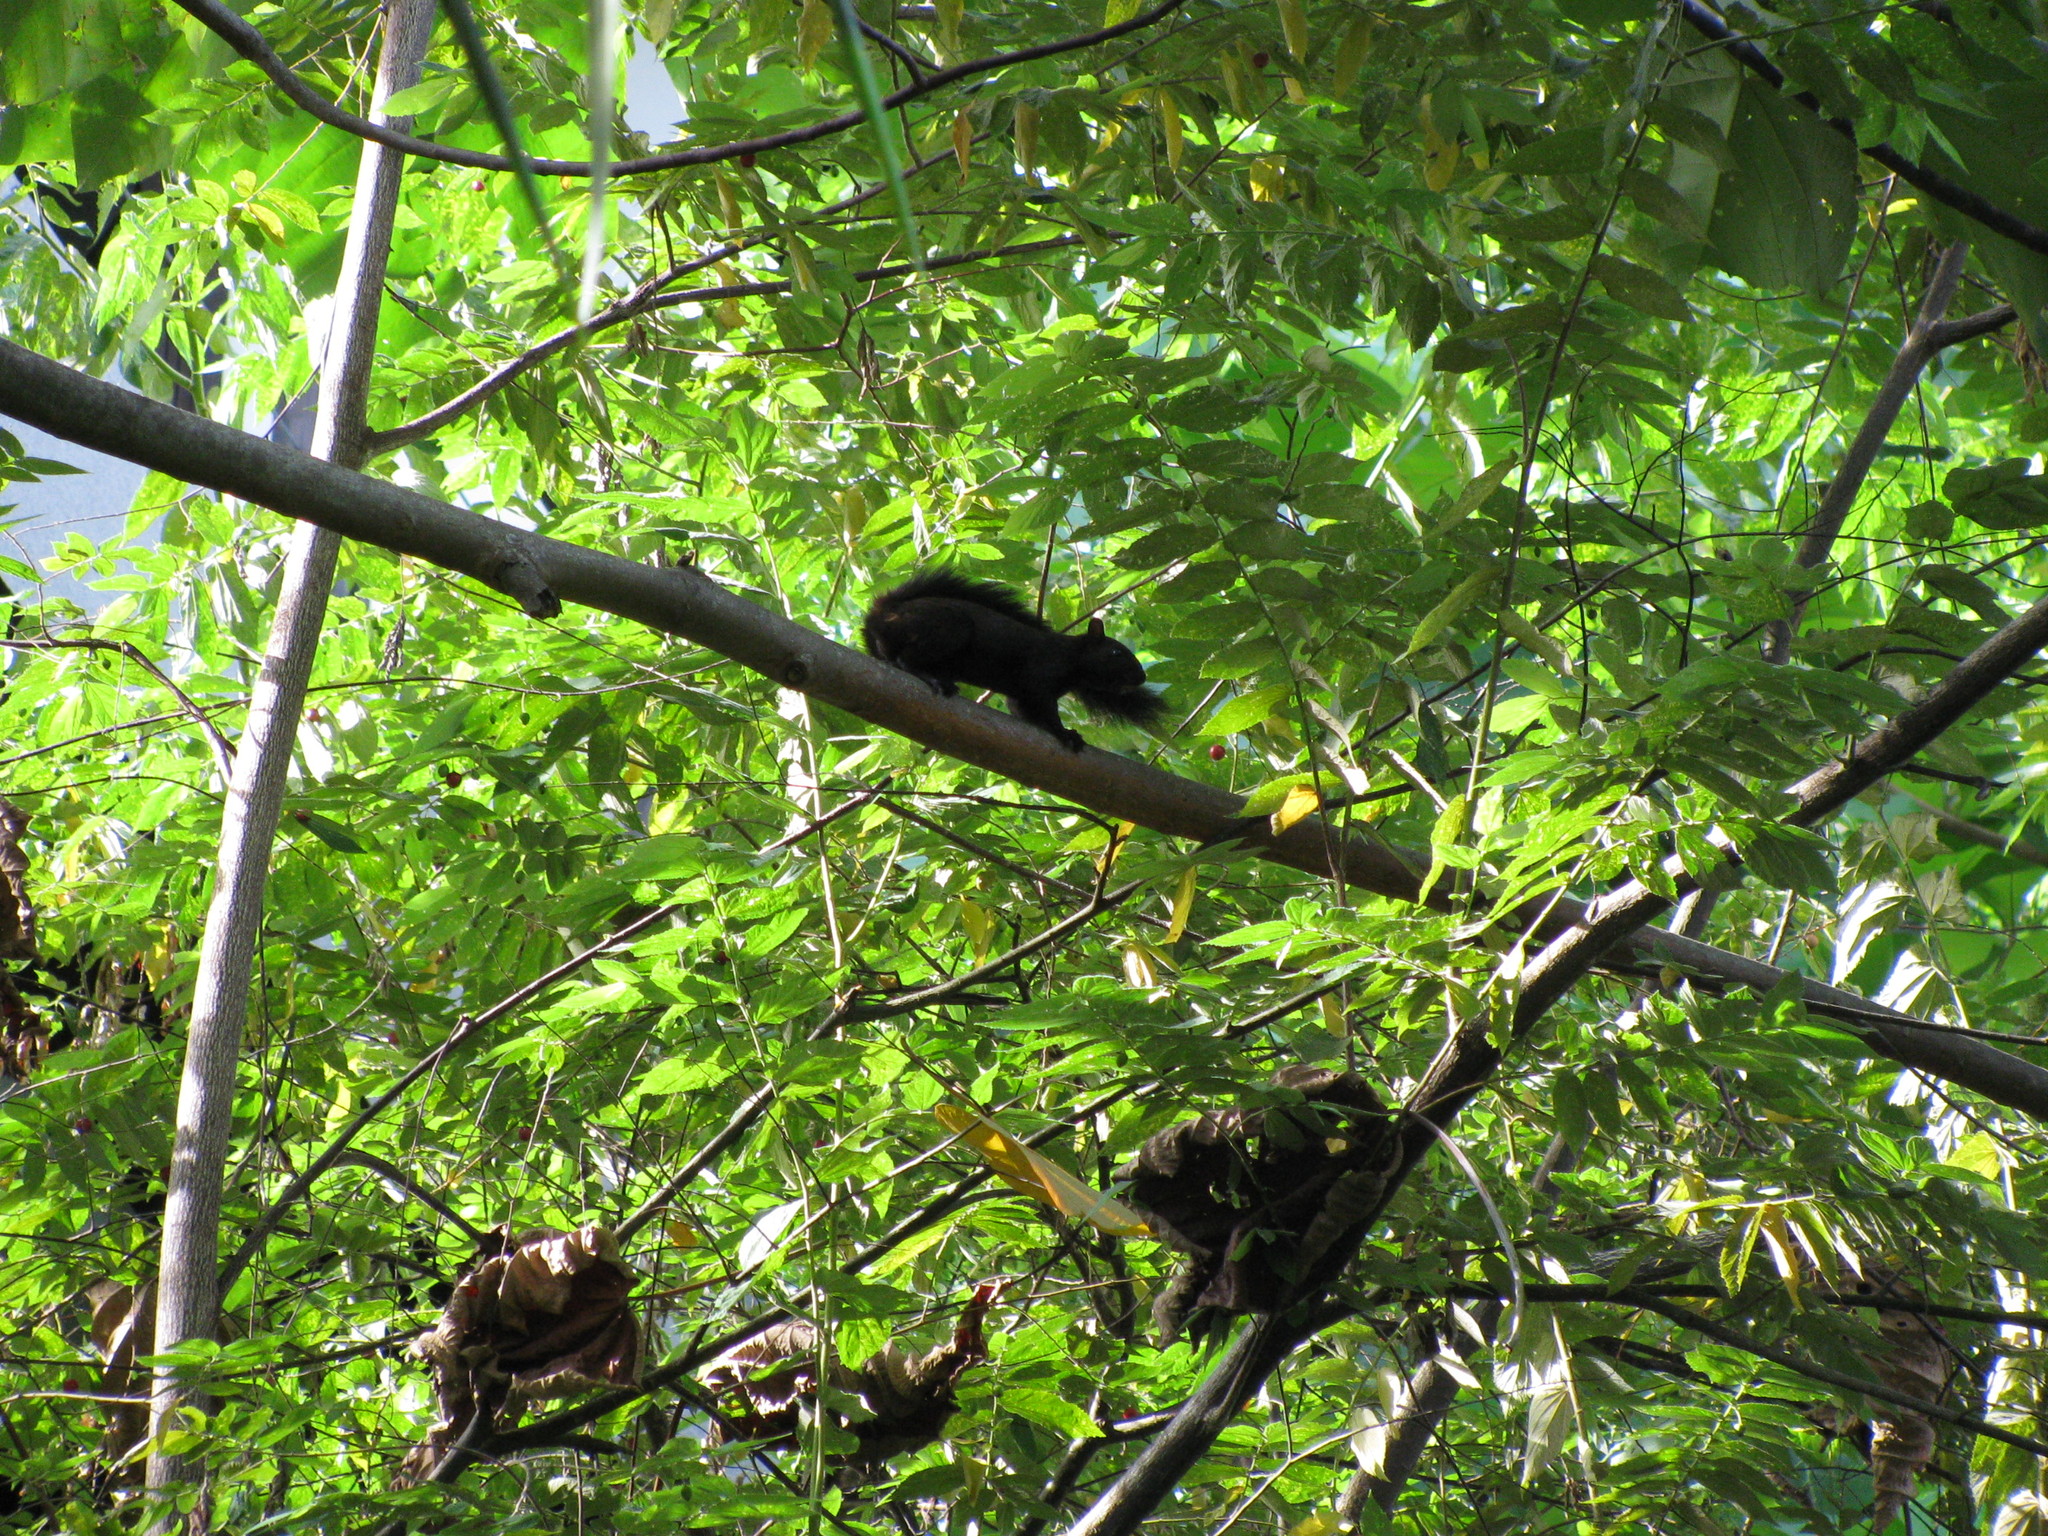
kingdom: Animalia
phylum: Chordata
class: Mammalia
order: Rodentia
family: Sciuridae
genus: Sciurus
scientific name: Sciurus variegatoides
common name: Variegated squirrel
